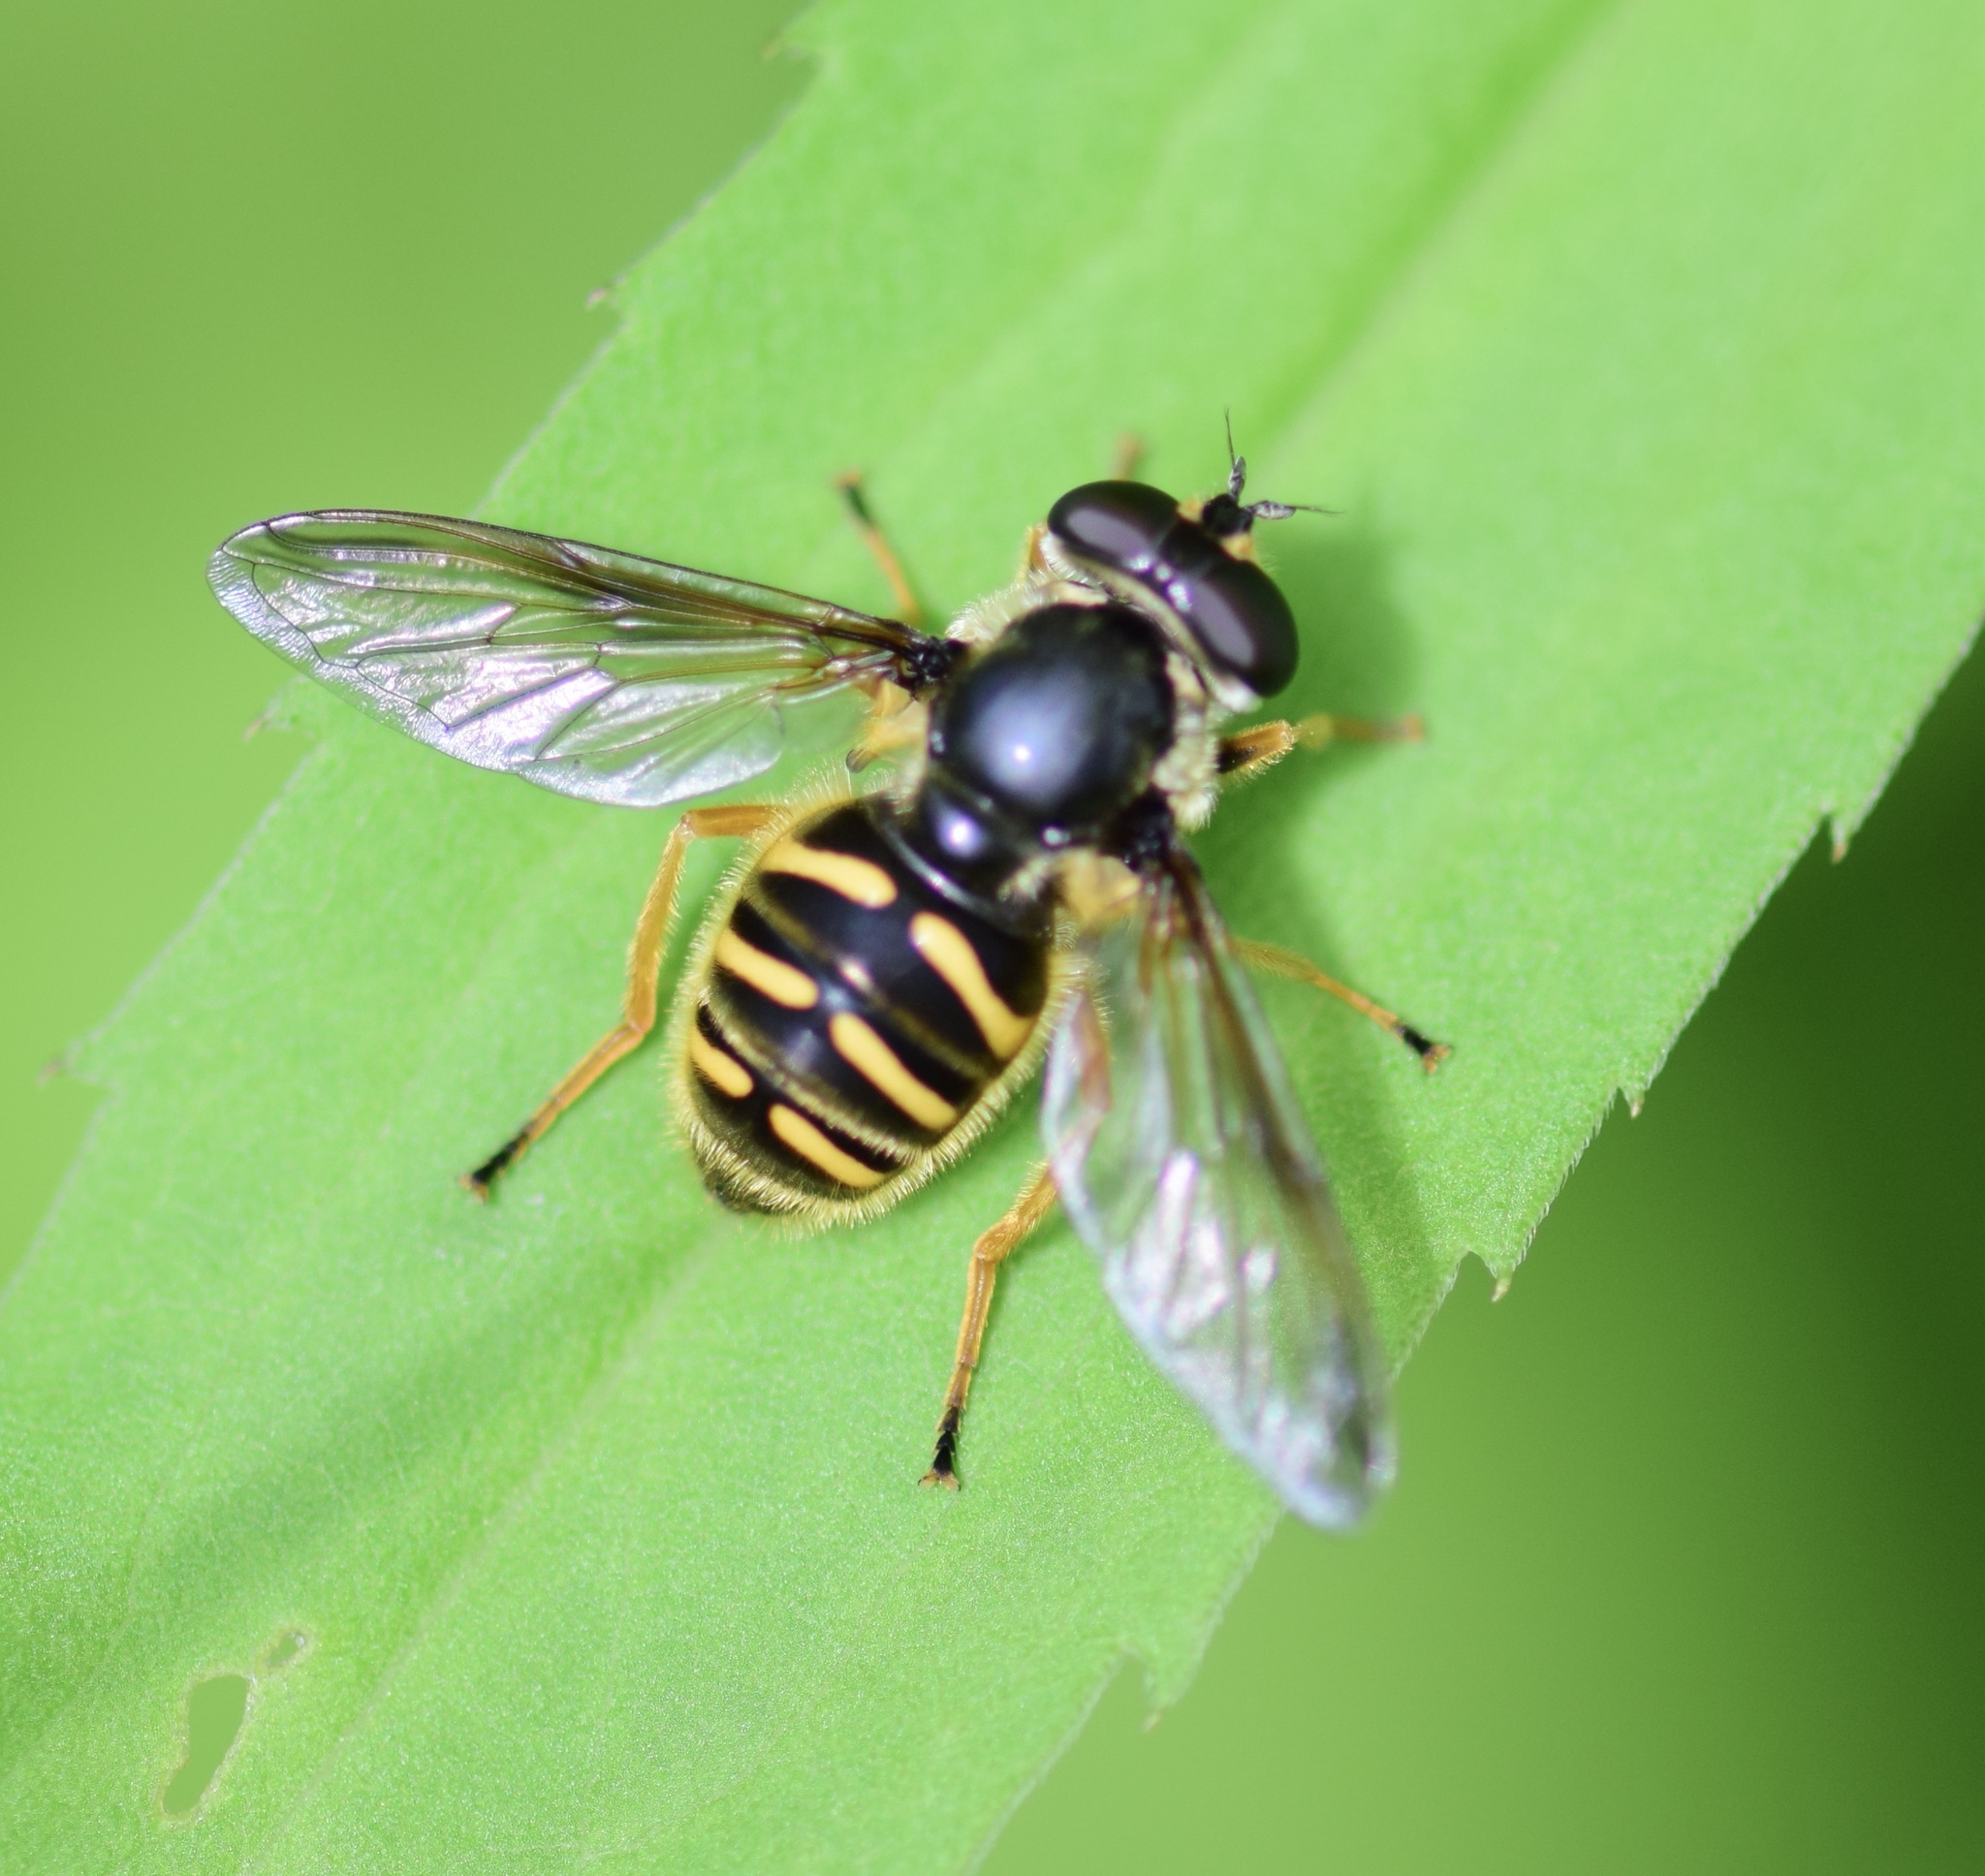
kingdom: Animalia
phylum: Arthropoda
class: Insecta
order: Diptera
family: Syrphidae
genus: Sericomyia
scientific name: Sericomyia chrysotoxoides
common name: Oblique-banded pond fly
